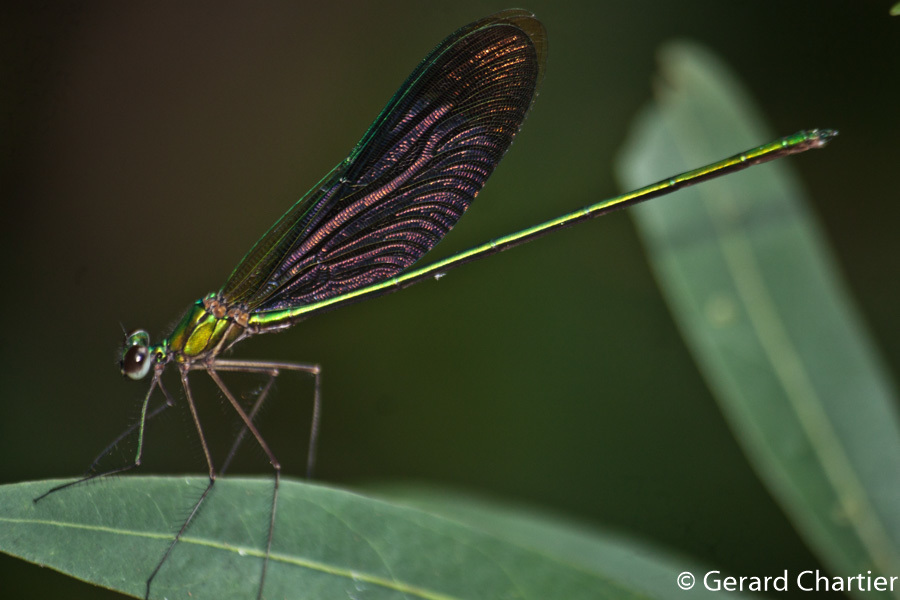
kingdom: Animalia
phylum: Arthropoda
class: Insecta
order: Odonata
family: Calopterygidae
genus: Neurobasis
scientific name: Neurobasis chinensis
